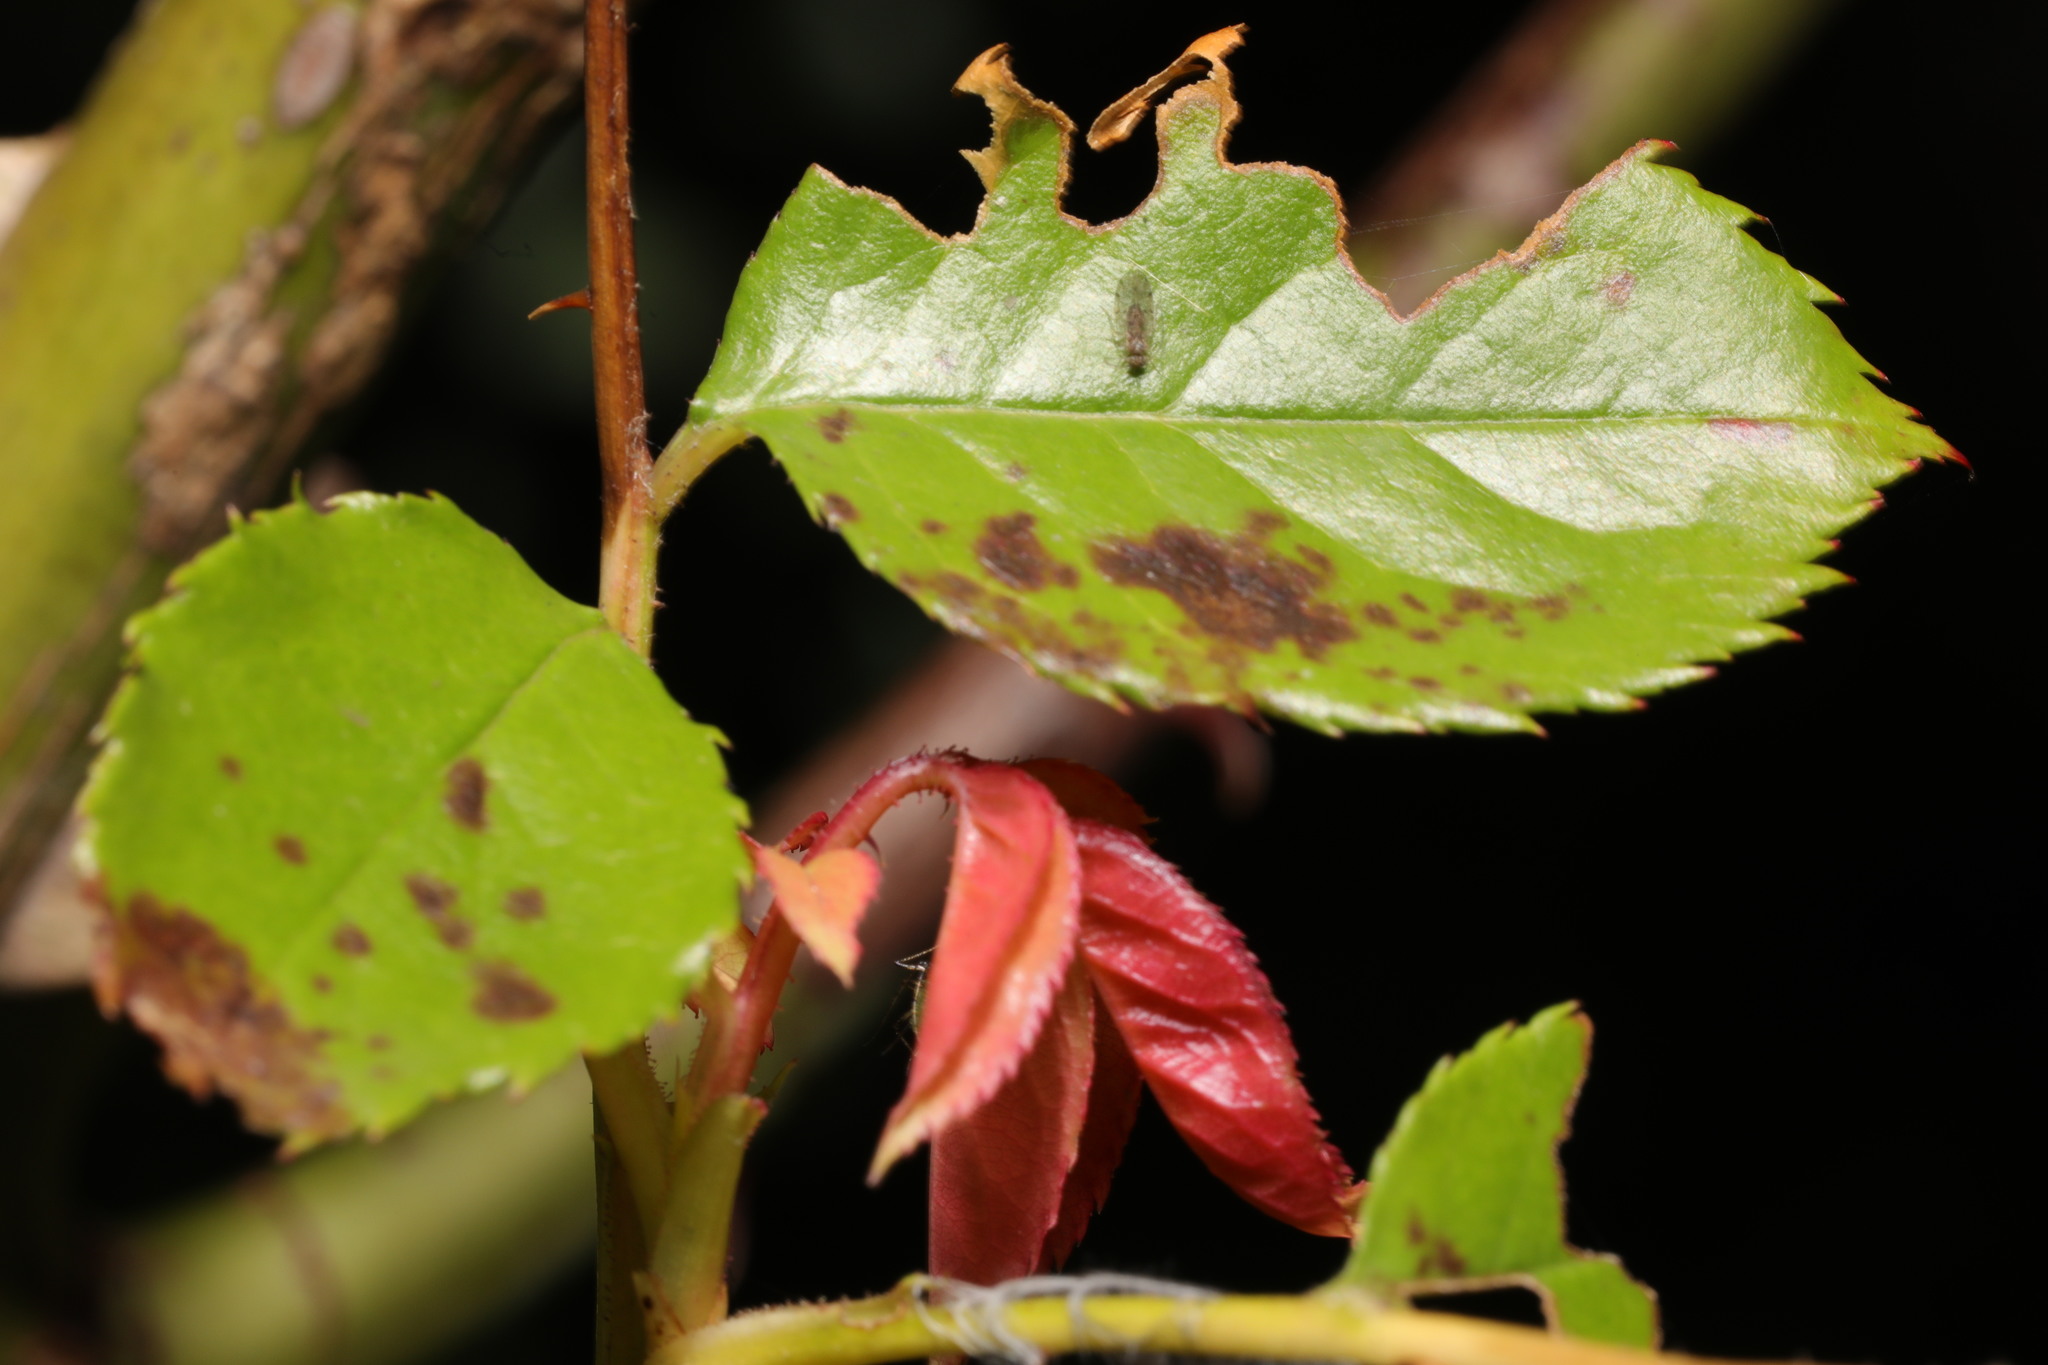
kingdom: Fungi
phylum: Ascomycota
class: Leotiomycetes
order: Helotiales
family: Drepanopezizaceae
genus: Diplocarpon
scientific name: Diplocarpon rosae
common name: Rose black-spot
